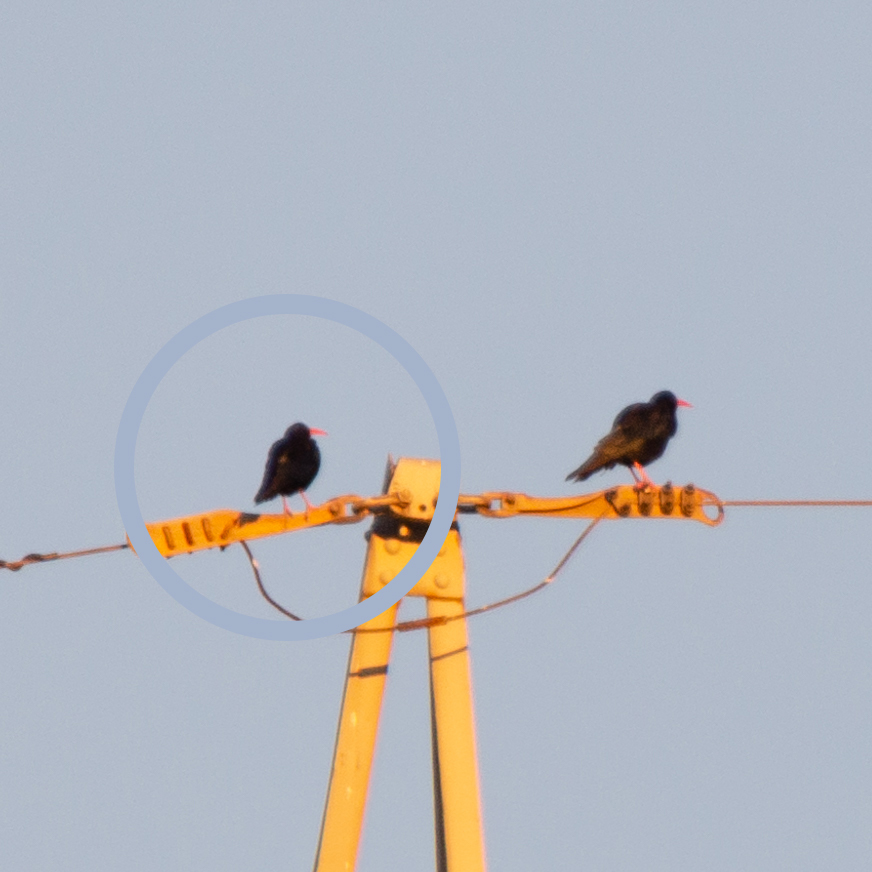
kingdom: Animalia
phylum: Chordata
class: Aves
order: Passeriformes
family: Corvidae
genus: Pyrrhocorax
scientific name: Pyrrhocorax pyrrhocorax
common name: Red-billed chough
